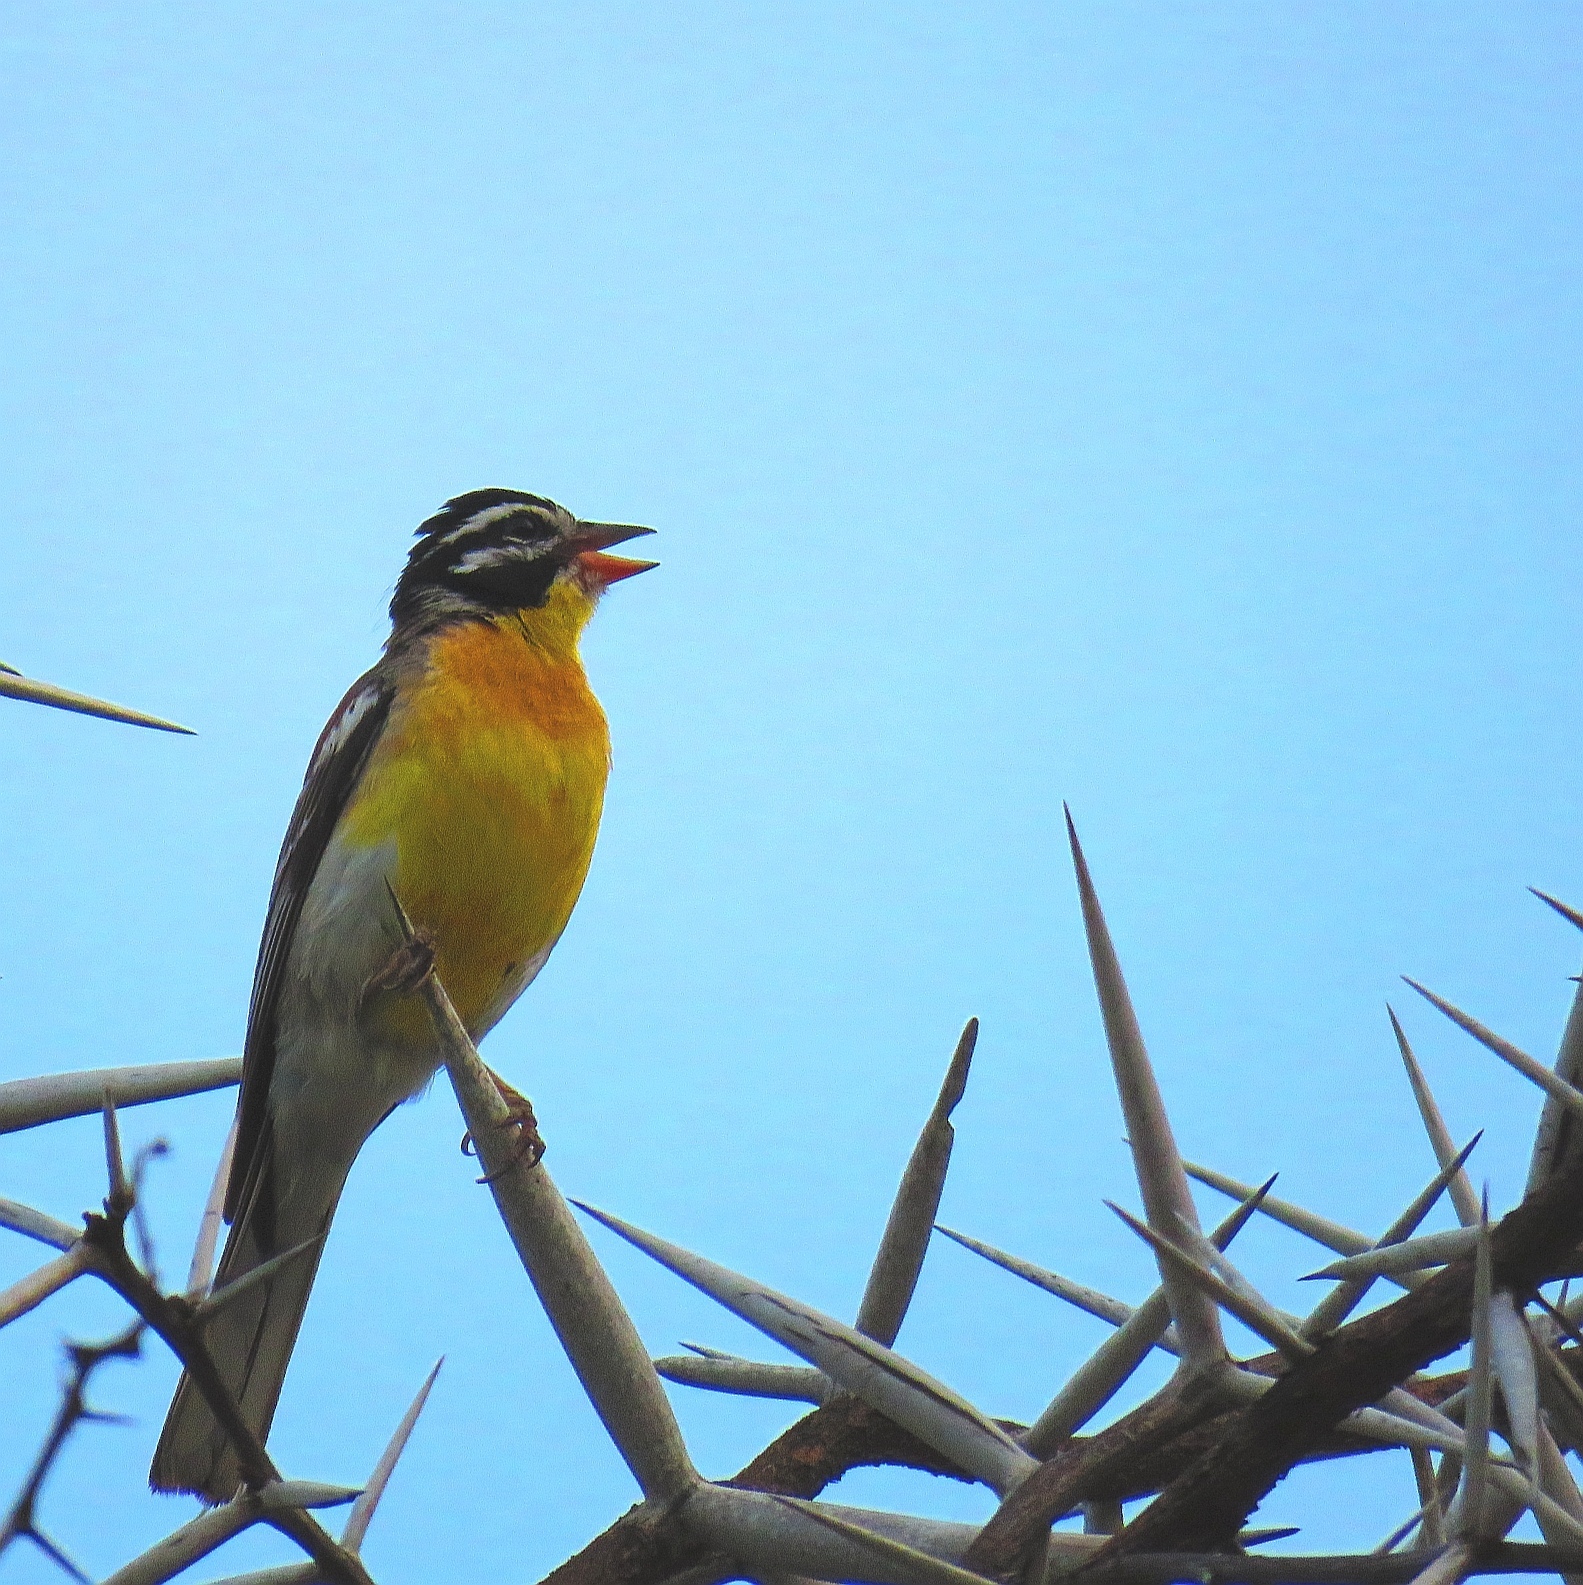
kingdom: Animalia
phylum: Chordata
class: Aves
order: Passeriformes
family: Emberizidae
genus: Emberiza
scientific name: Emberiza flaviventris
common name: Golden-breasted bunting
